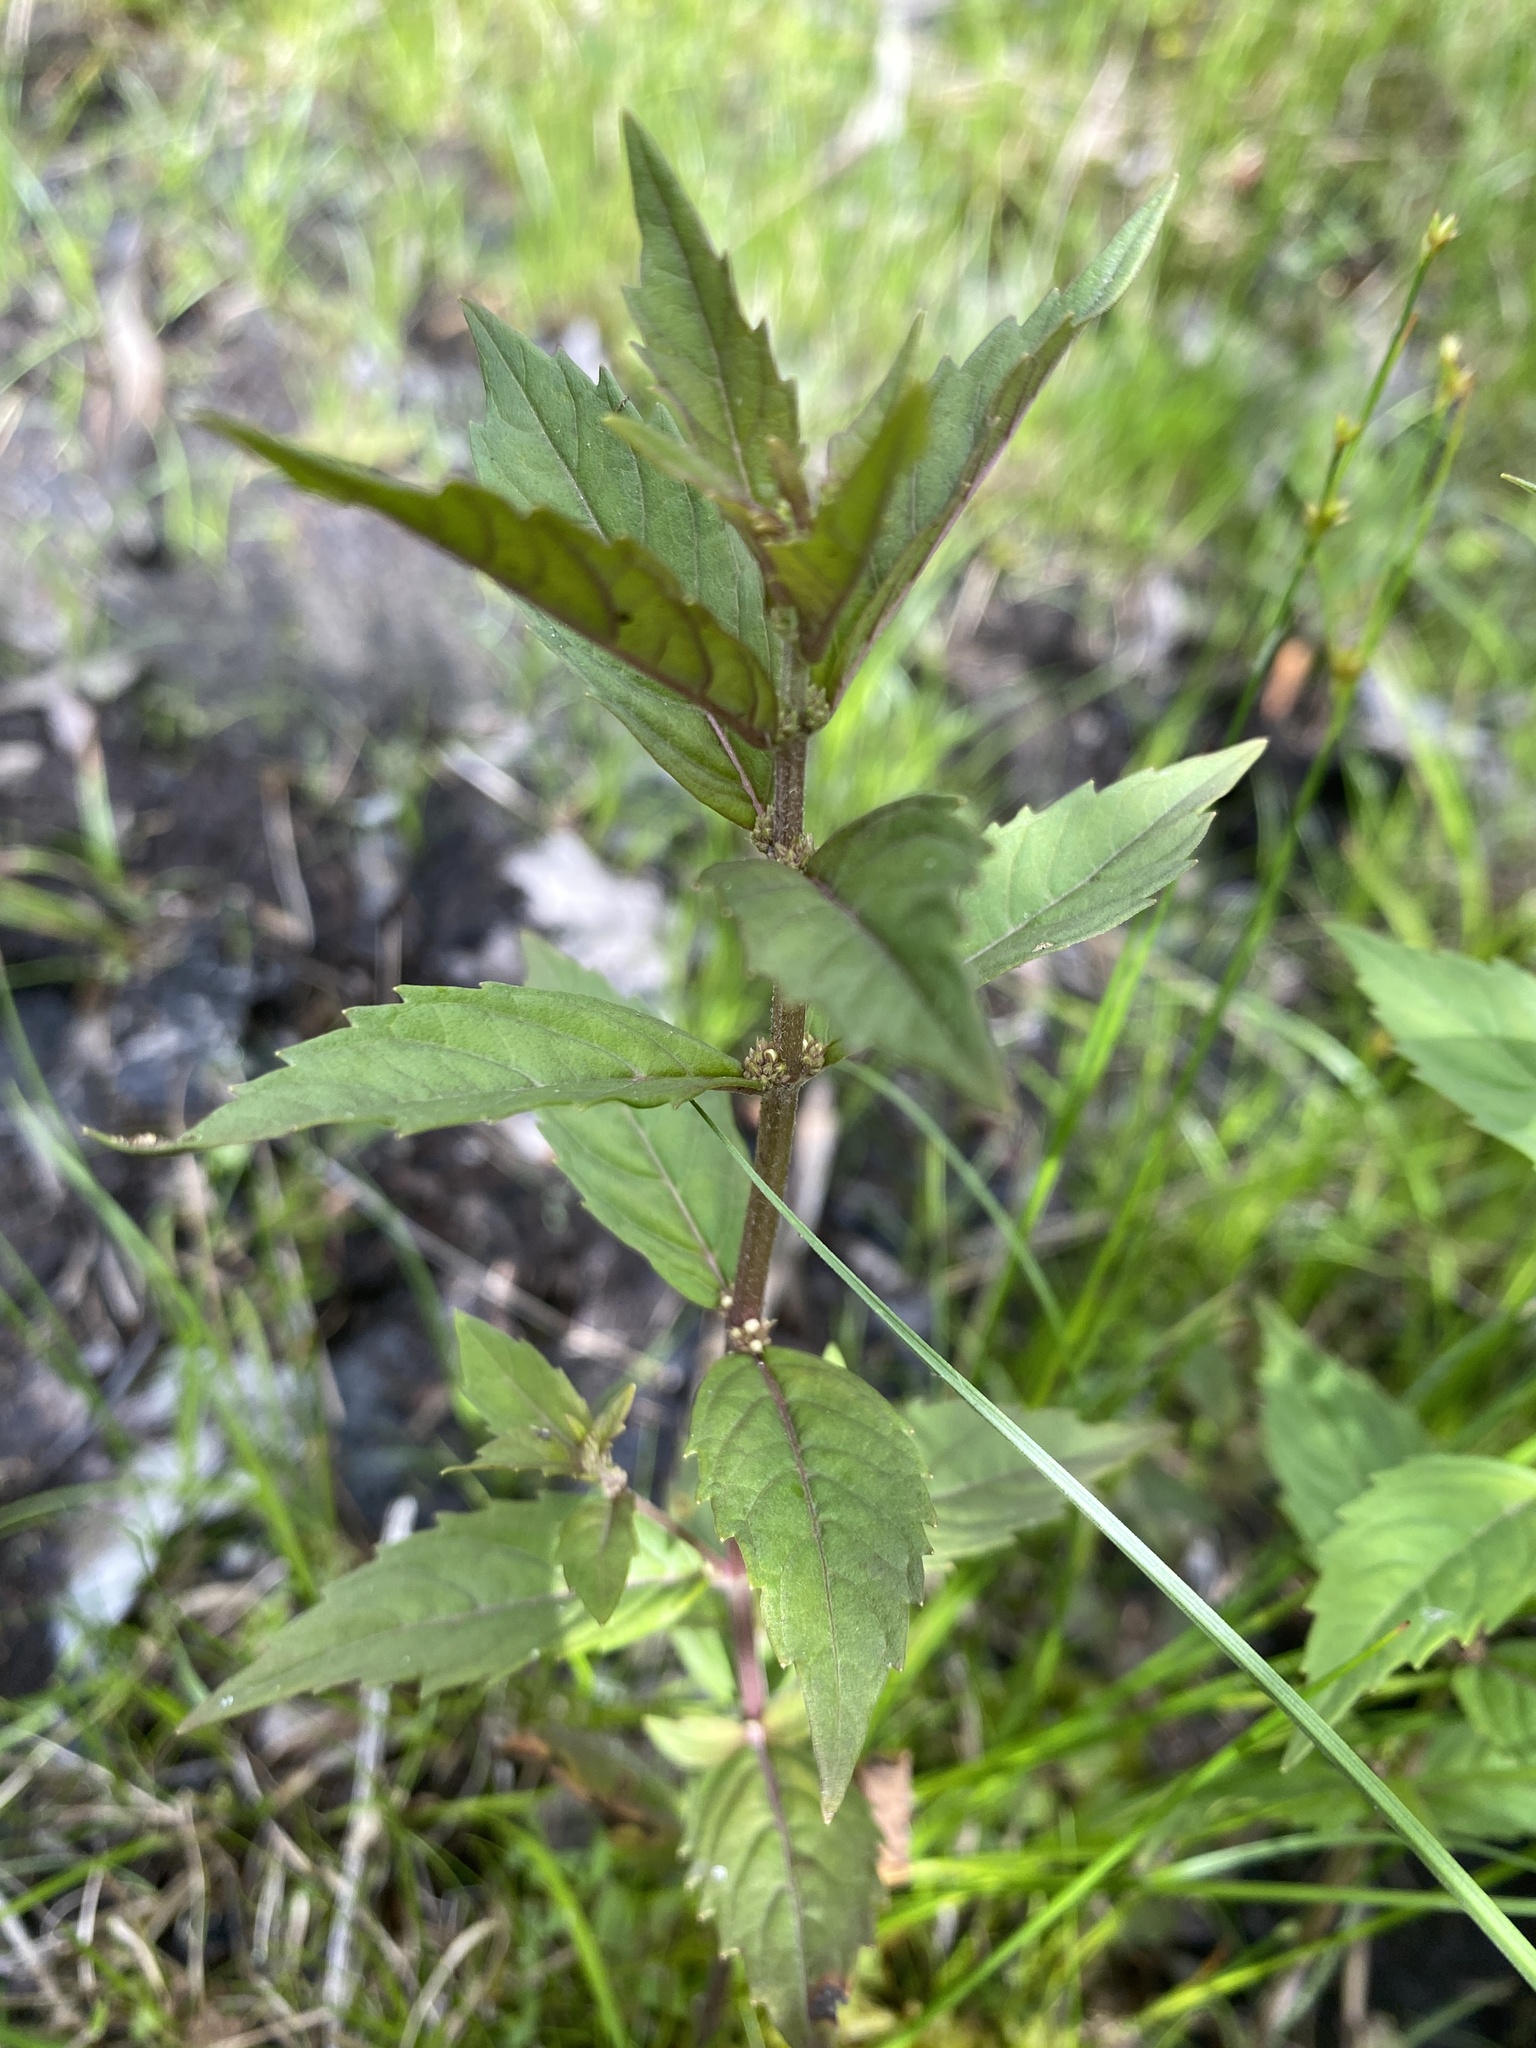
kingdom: Plantae
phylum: Tracheophyta
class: Magnoliopsida
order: Gentianales
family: Rubiaceae
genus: Houstonia
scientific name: Houstonia serpyllifolia
